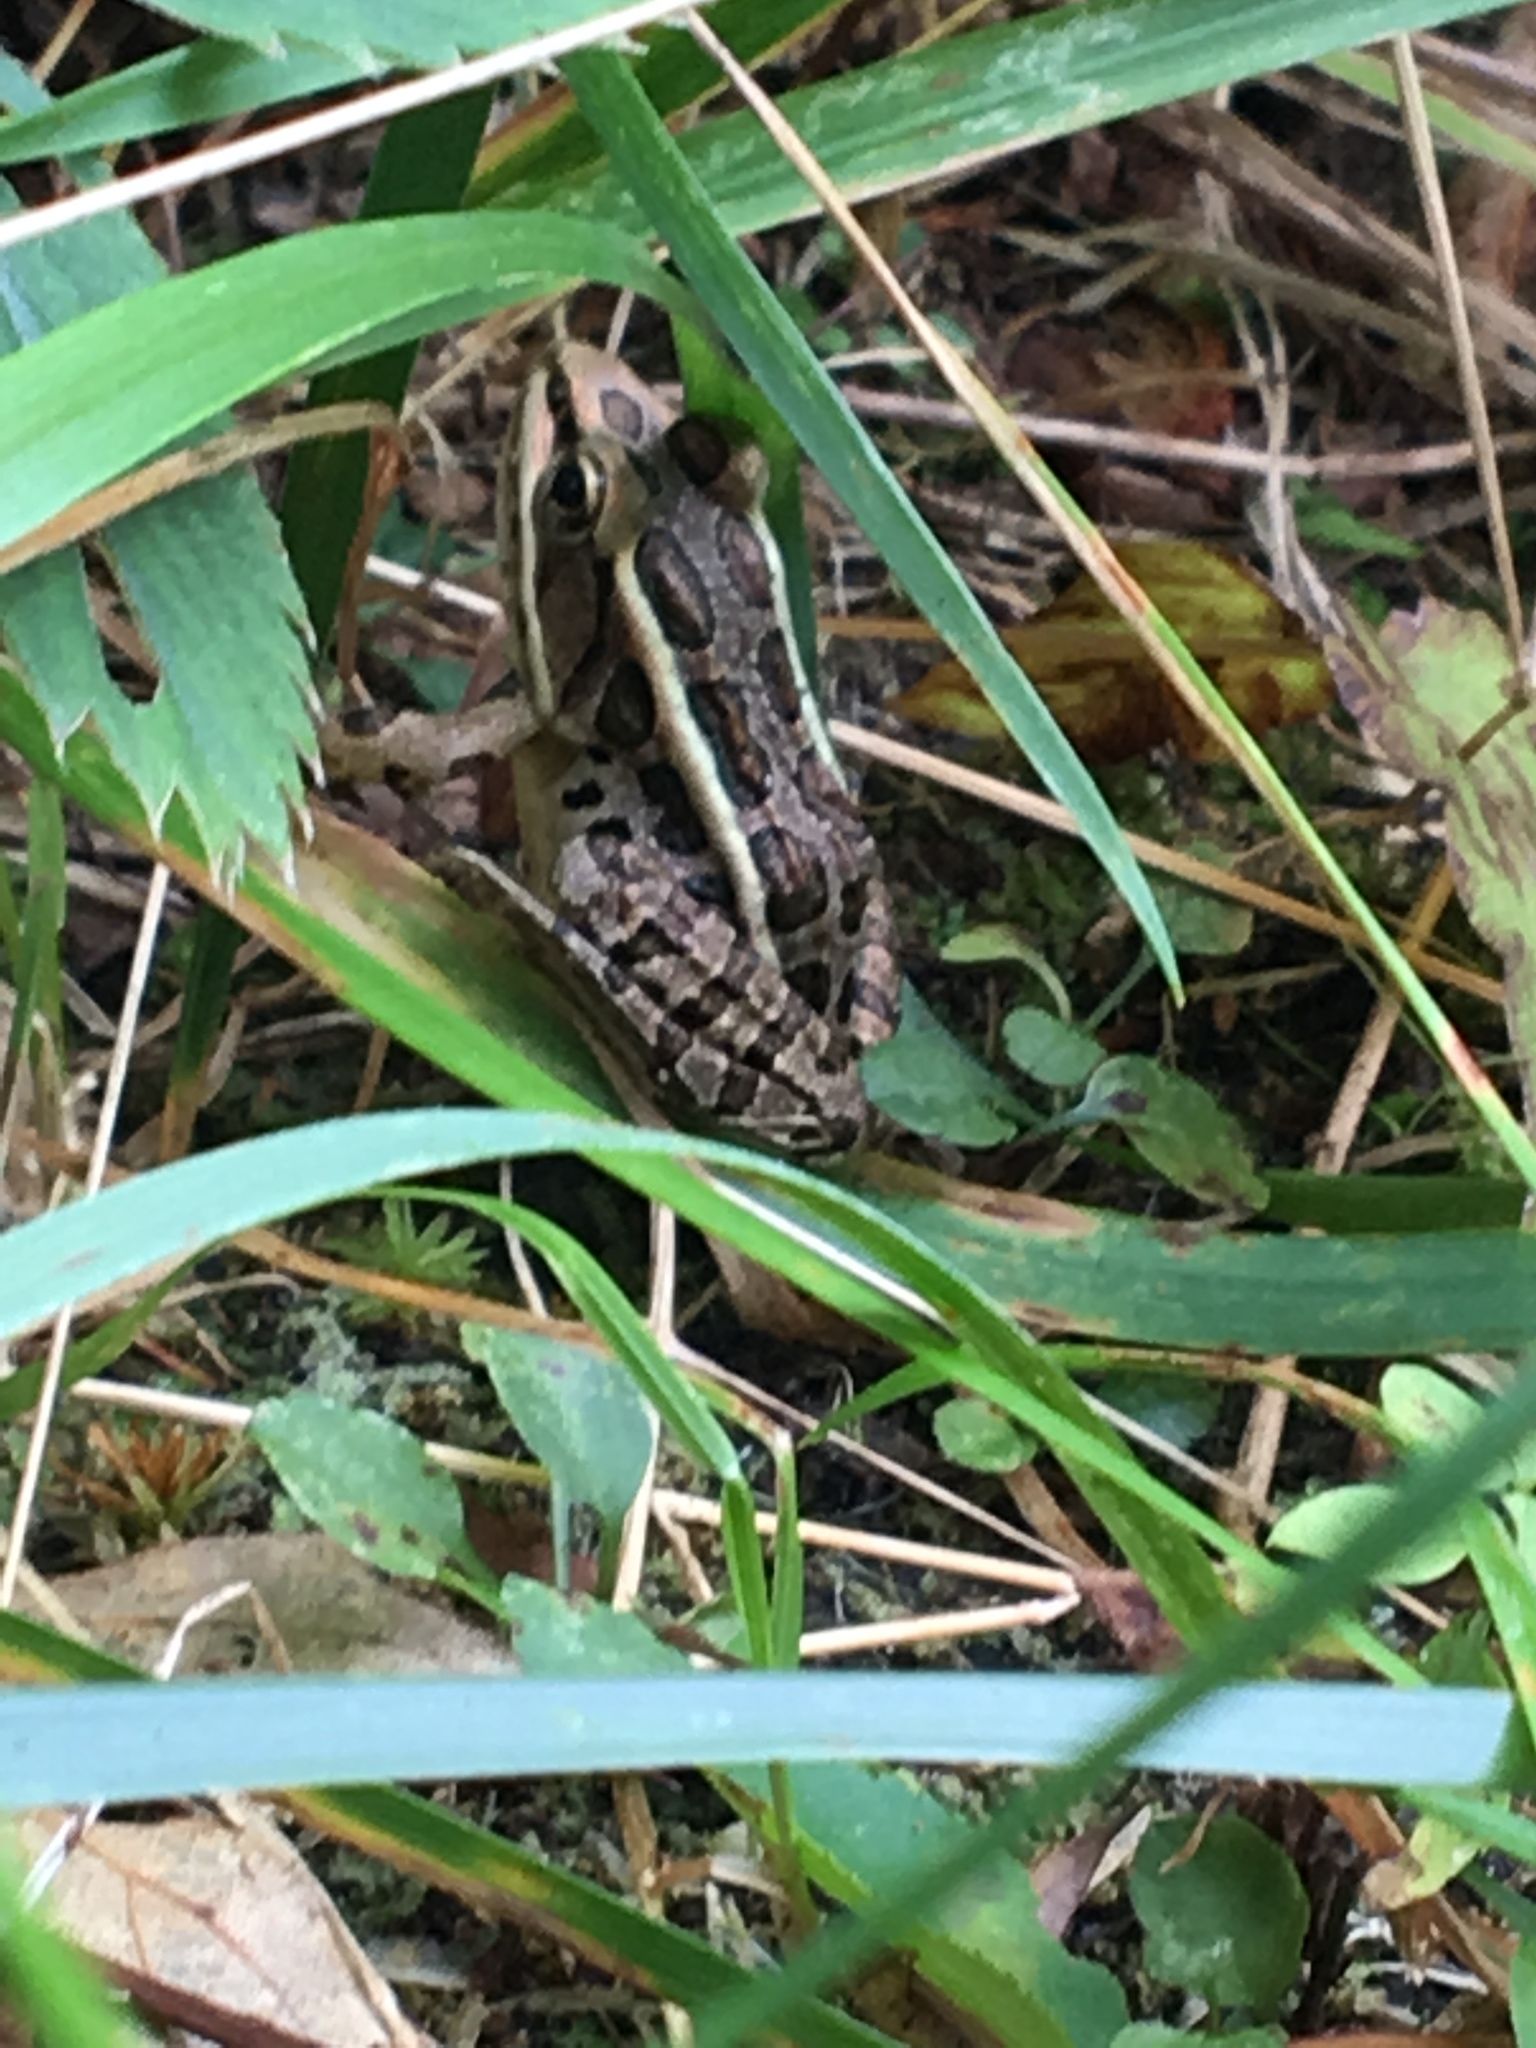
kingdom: Animalia
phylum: Chordata
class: Amphibia
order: Anura
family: Ranidae
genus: Lithobates
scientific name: Lithobates palustris
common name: Pickerel frog
